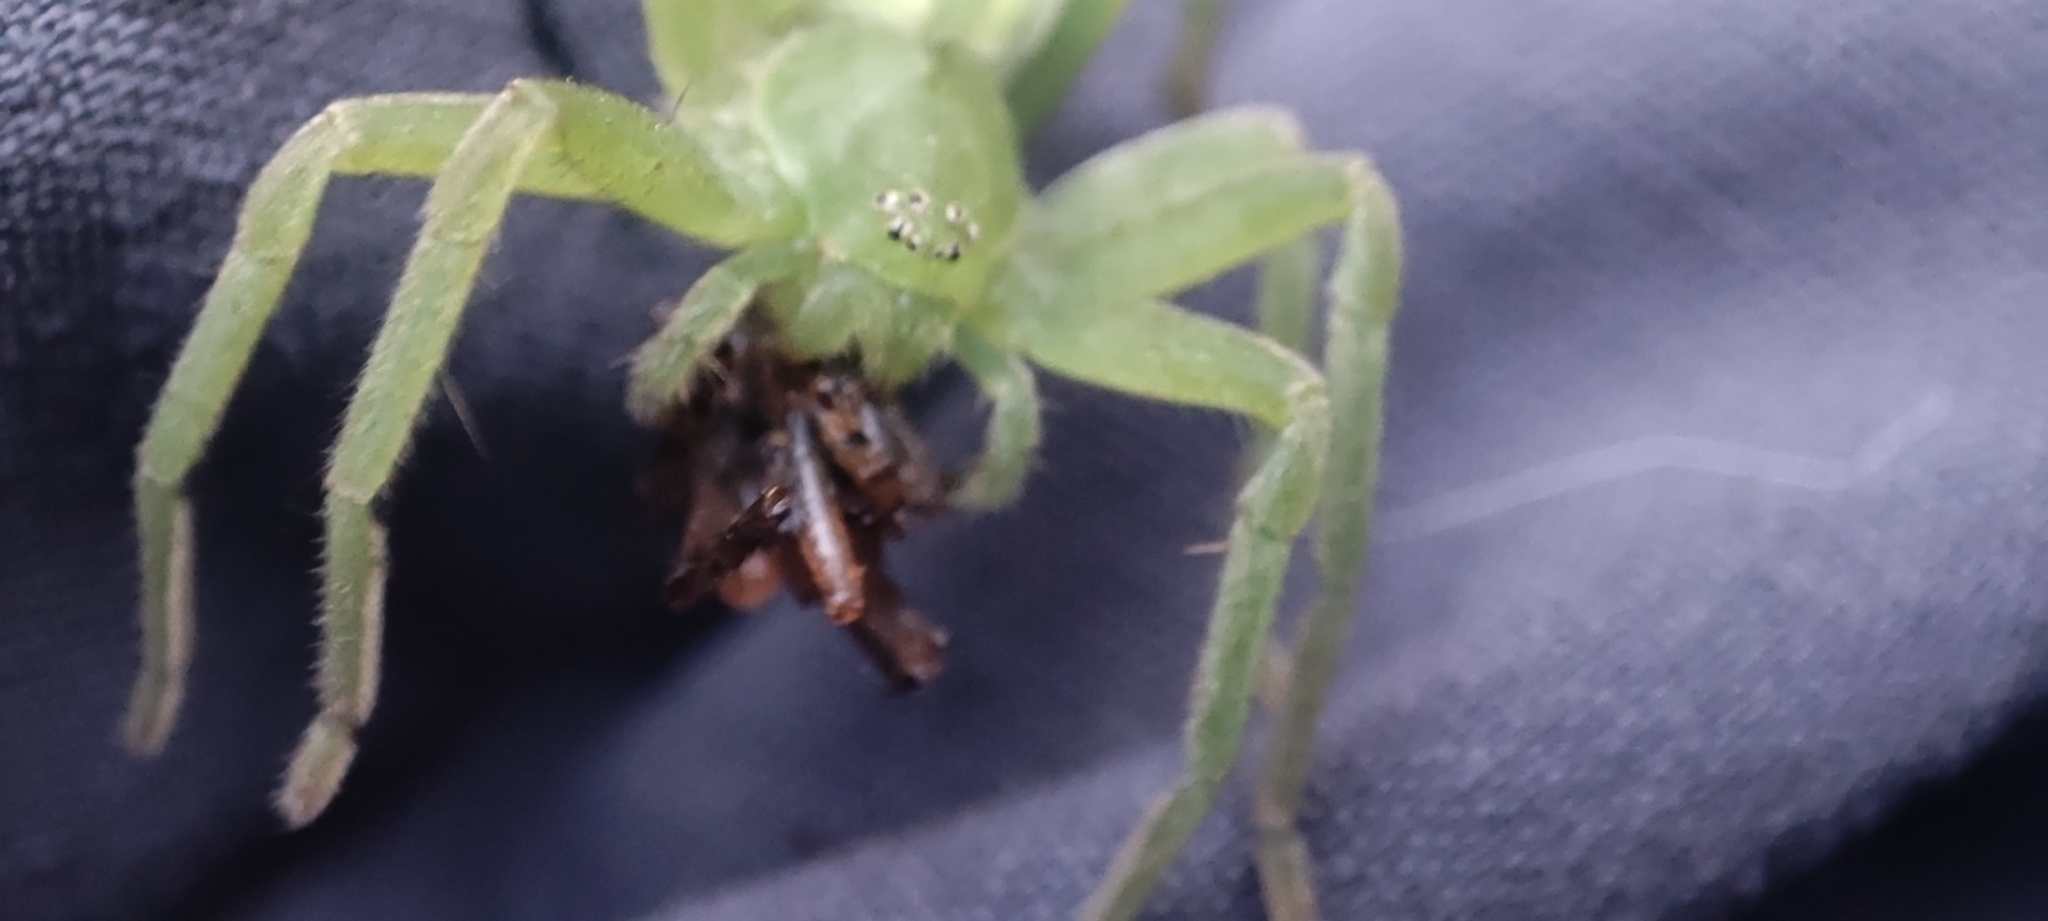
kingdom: Animalia
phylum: Arthropoda
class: Arachnida
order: Araneae
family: Sparassidae
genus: Micrommata
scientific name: Micrommata virescens
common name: Green spider
